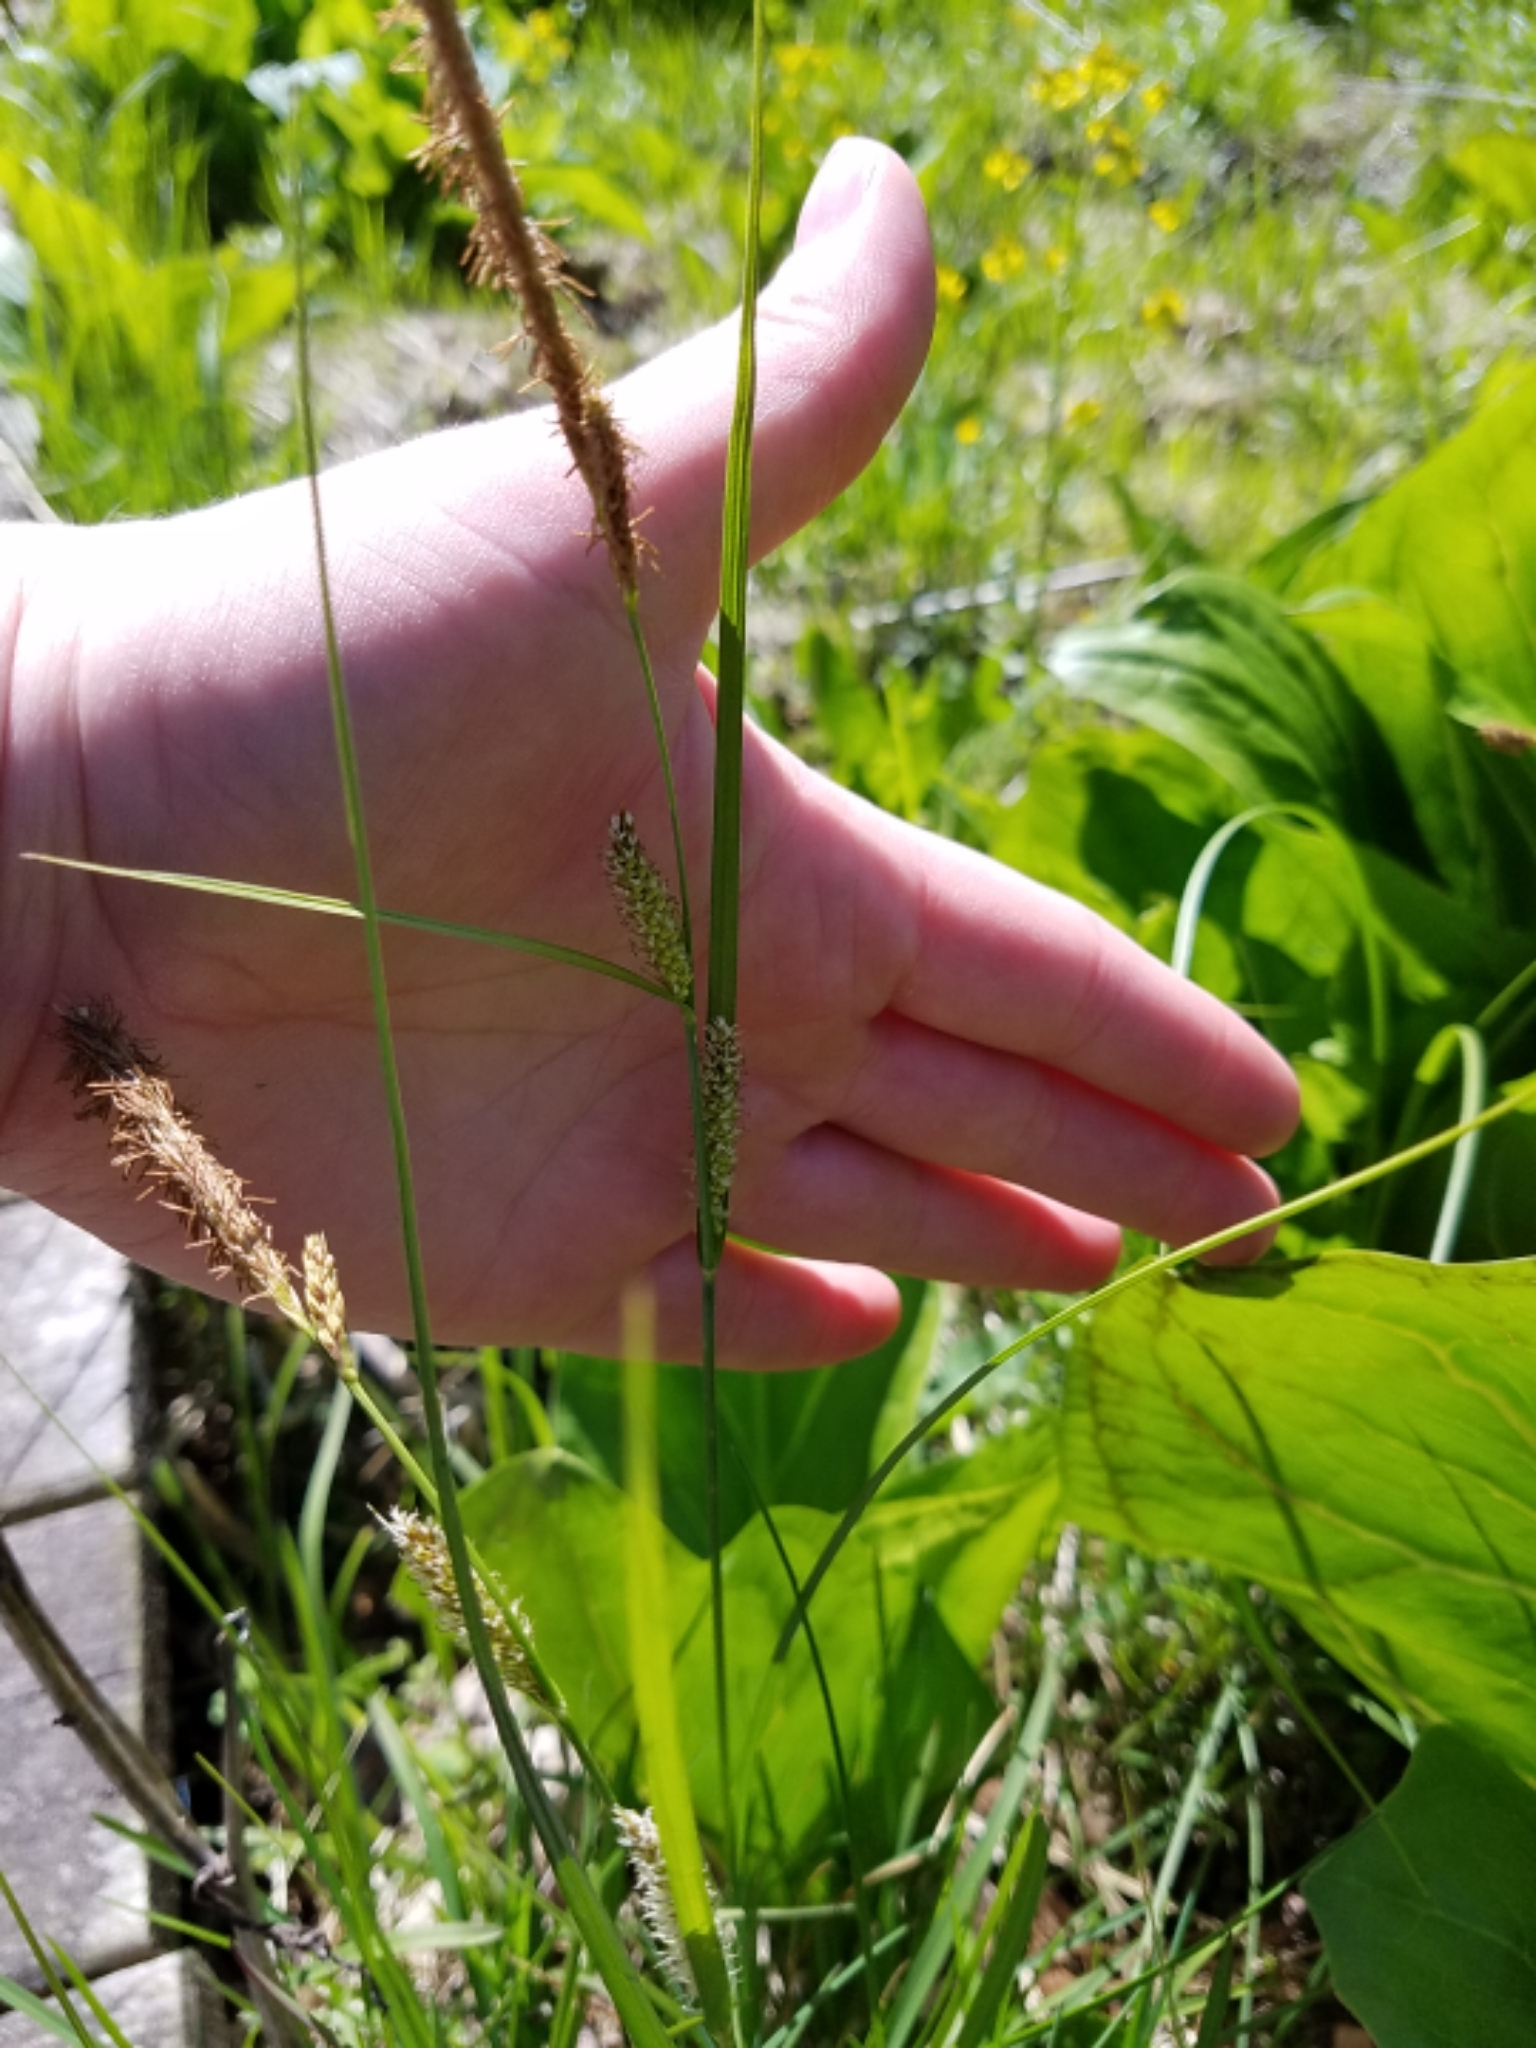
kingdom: Plantae
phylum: Tracheophyta
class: Liliopsida
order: Poales
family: Cyperaceae
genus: Carex
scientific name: Carex pellita
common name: Woolly sedge
